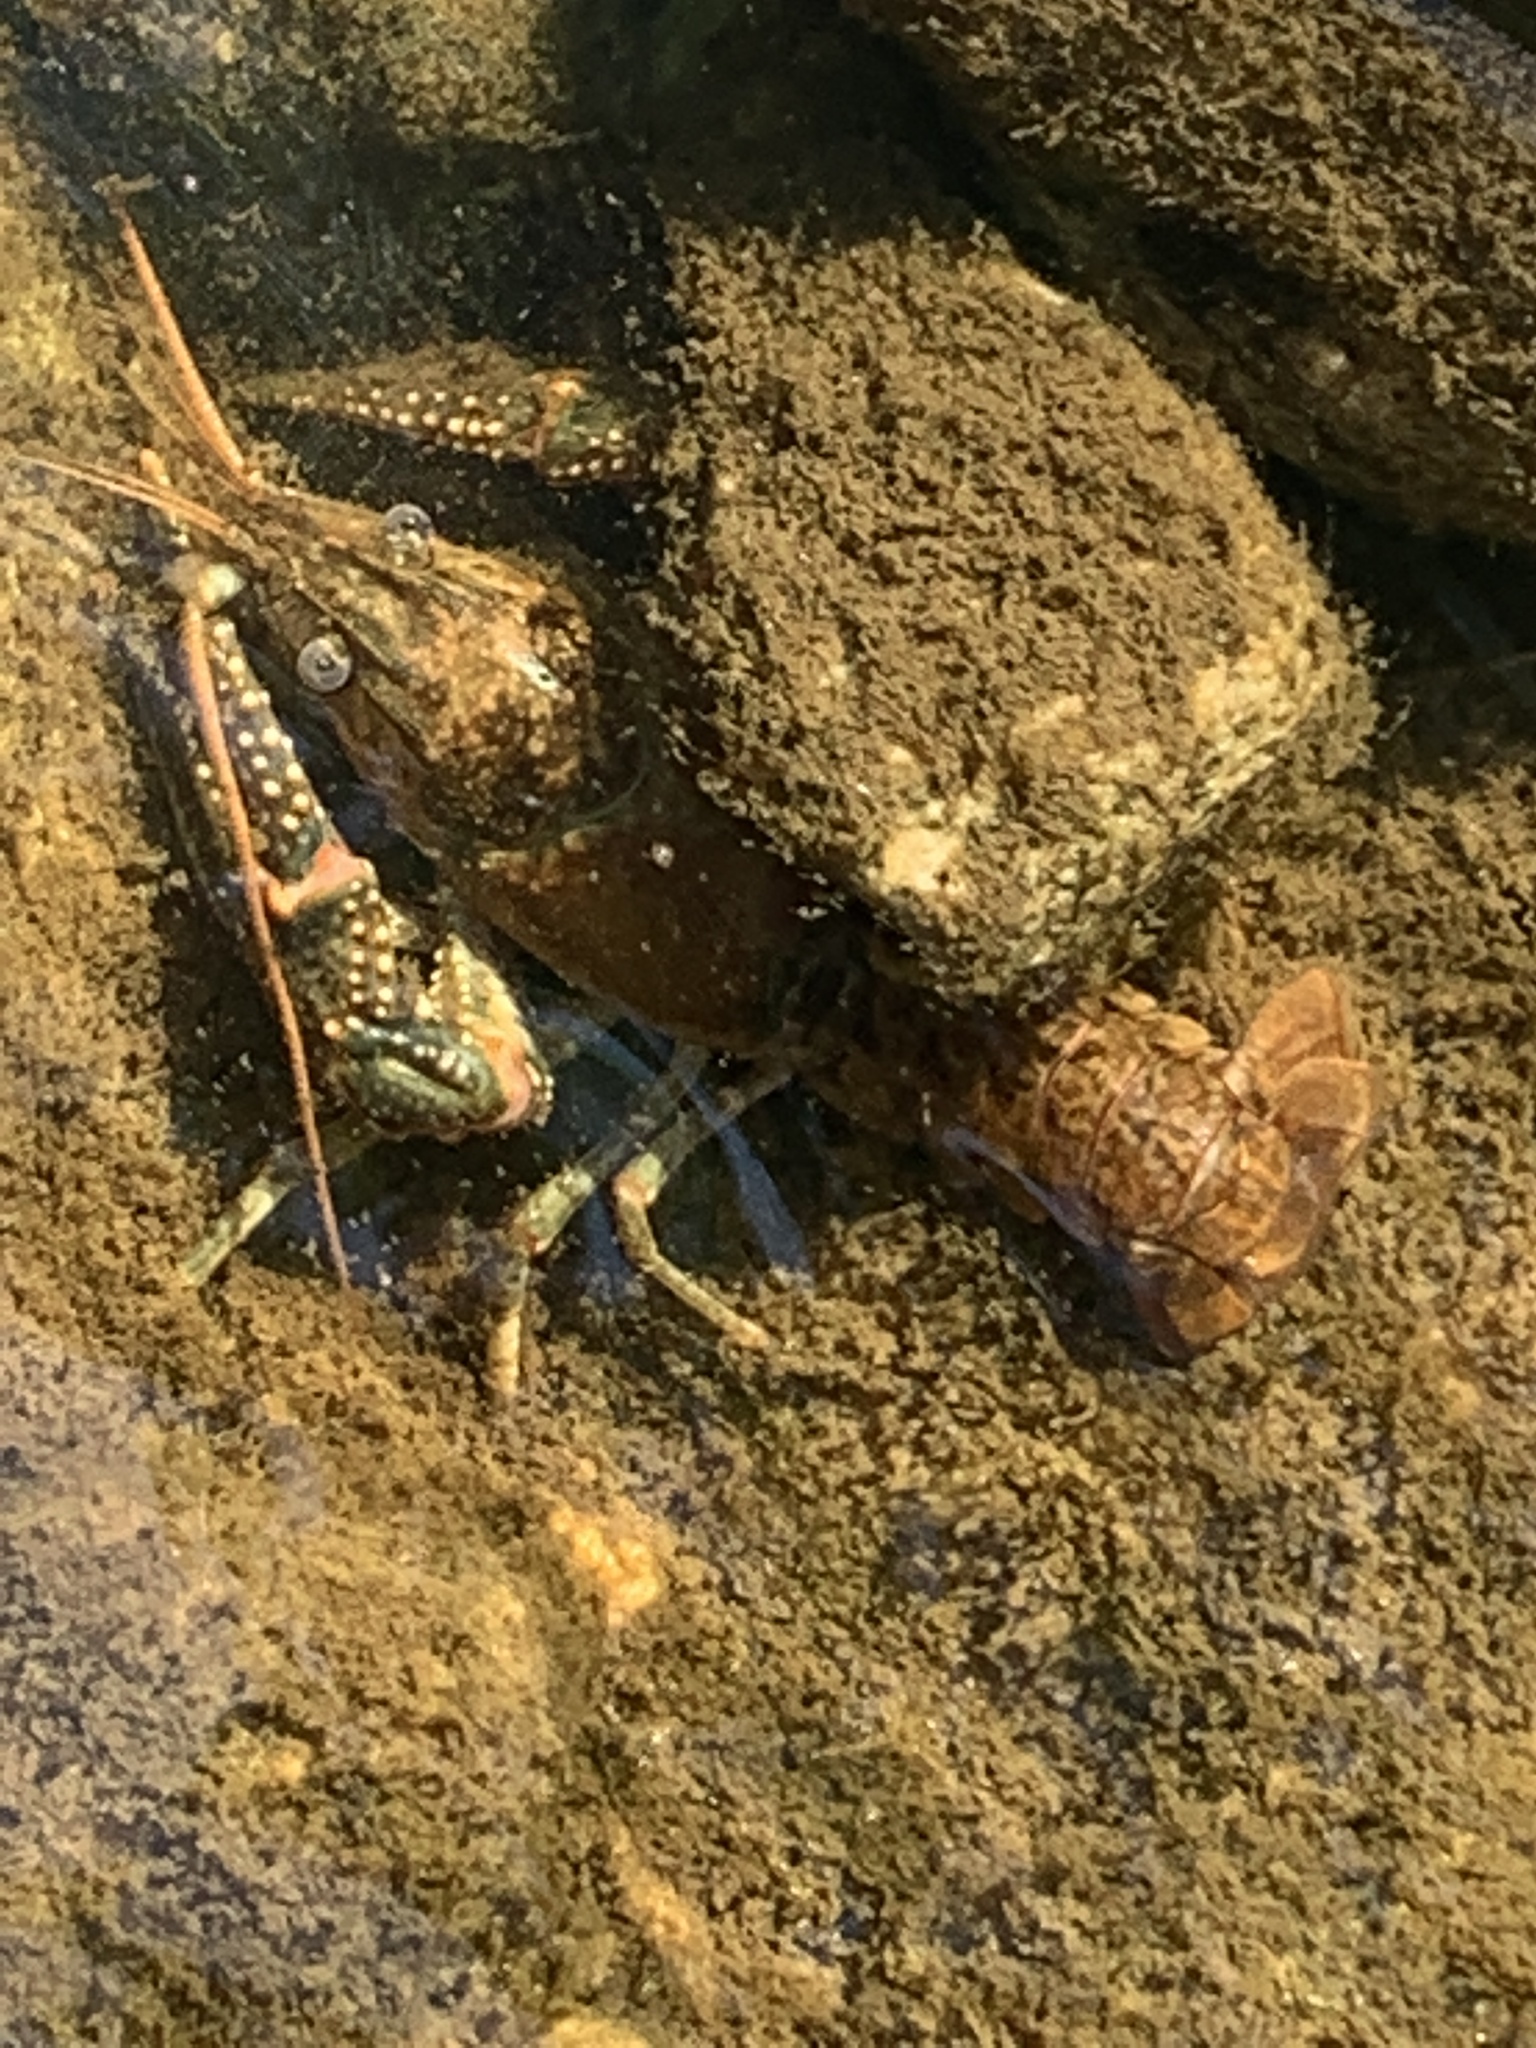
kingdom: Animalia
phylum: Arthropoda
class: Malacostraca
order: Decapoda
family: Cambaridae
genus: Faxonius
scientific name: Faxonius virilis
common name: Virile crayfish
